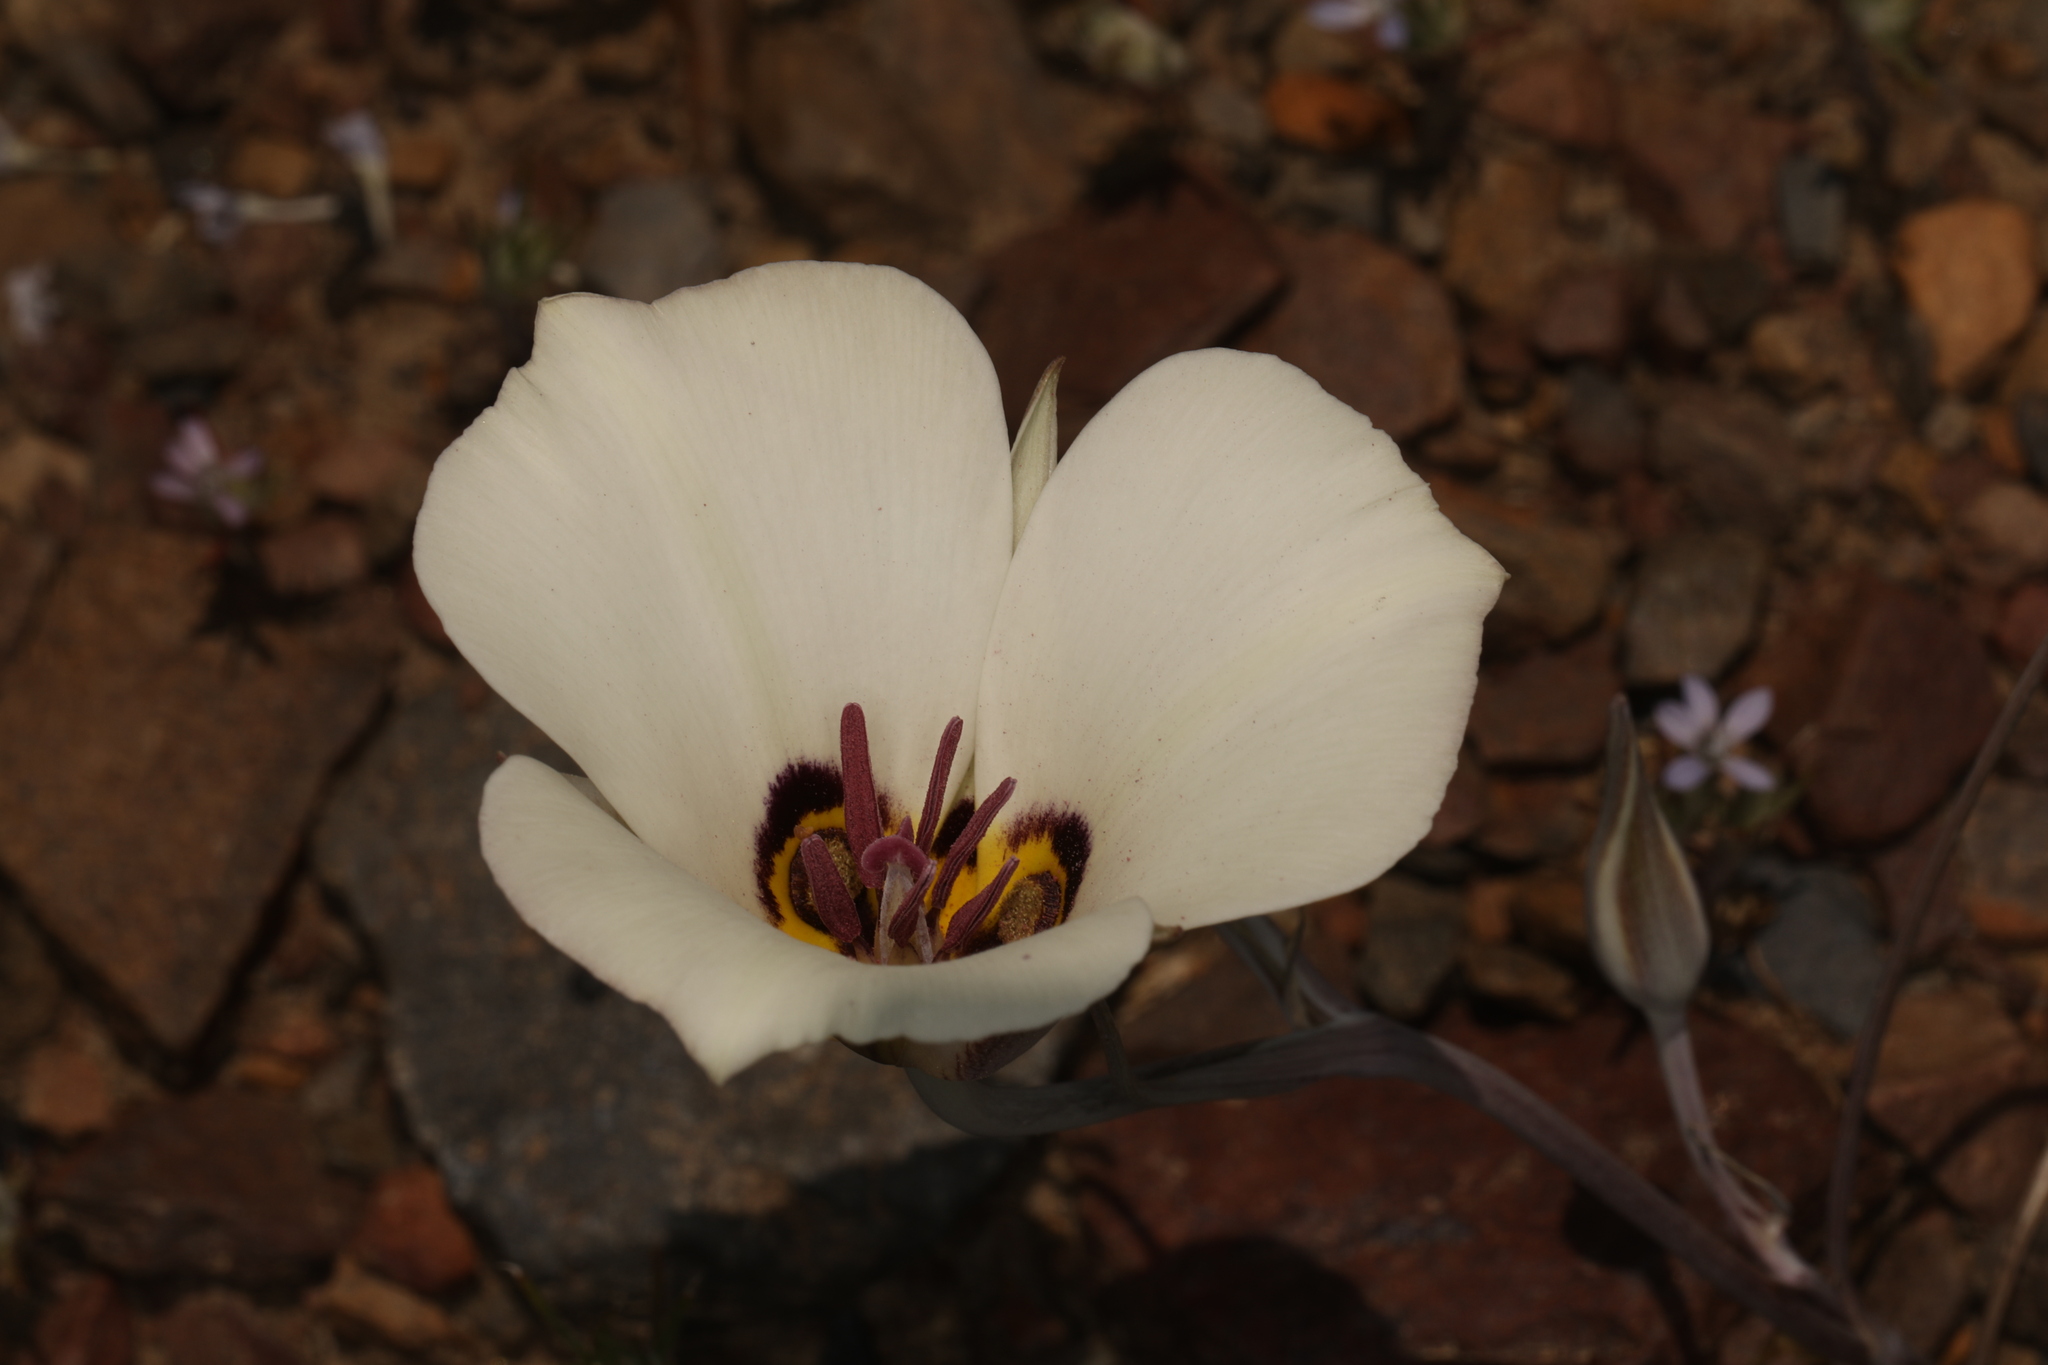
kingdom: Plantae
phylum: Tracheophyta
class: Liliopsida
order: Liliales
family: Liliaceae
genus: Calochortus
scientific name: Calochortus bruneaunis
